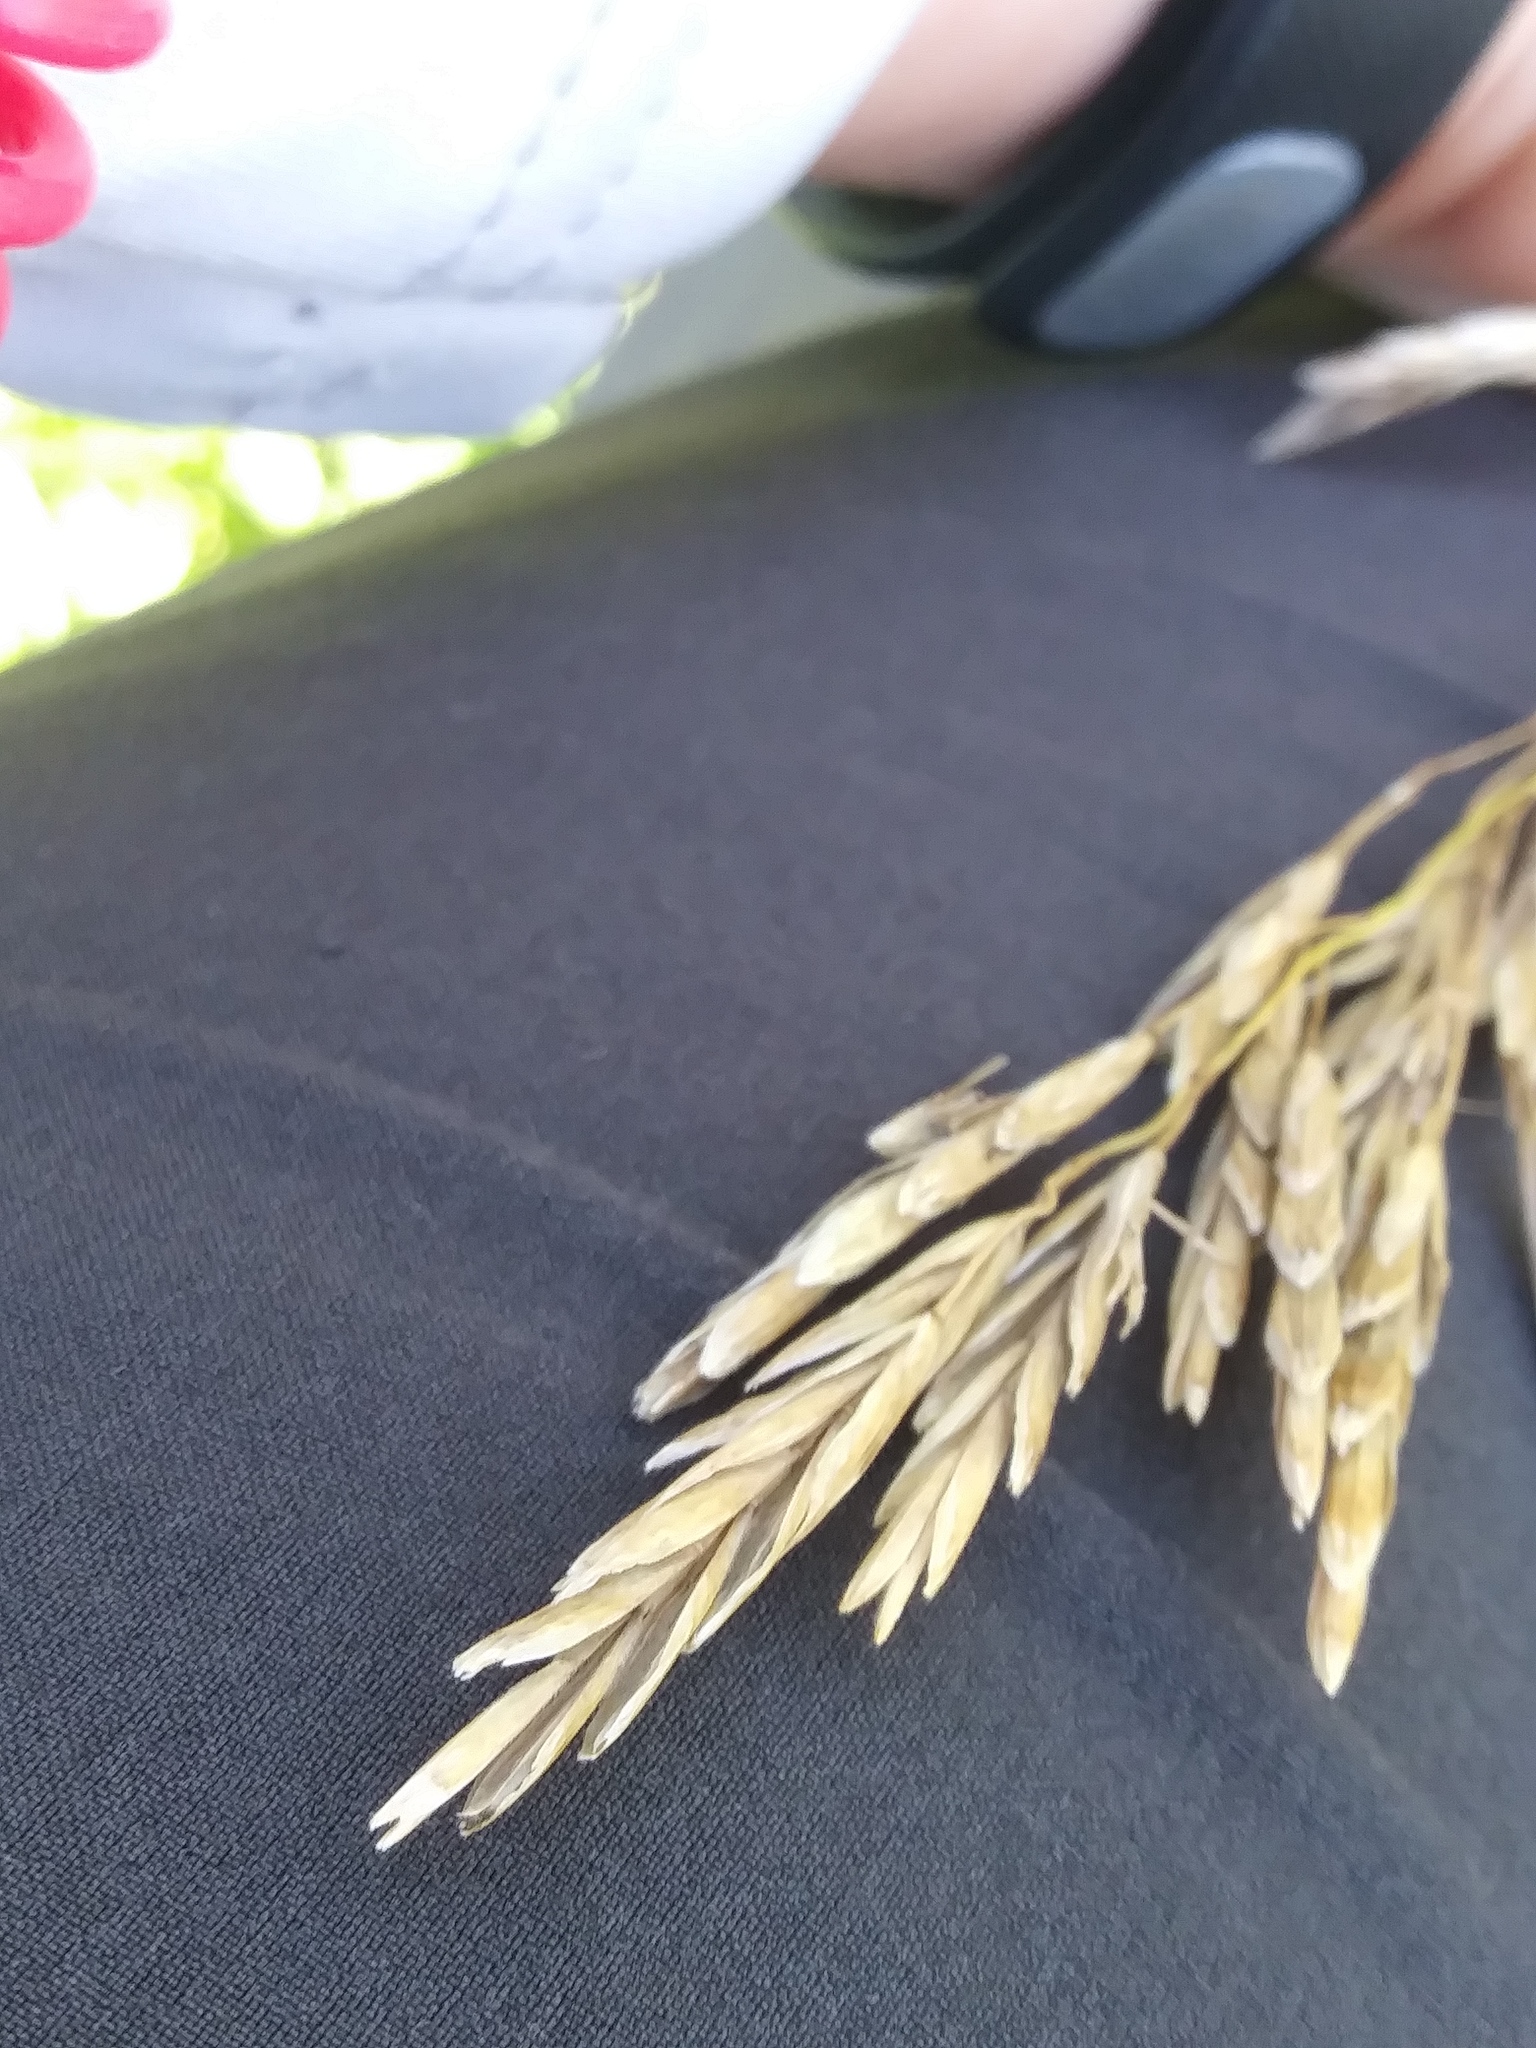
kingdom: Plantae
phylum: Tracheophyta
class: Liliopsida
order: Poales
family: Poaceae
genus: Bromus
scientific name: Bromus inermis
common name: Smooth brome
